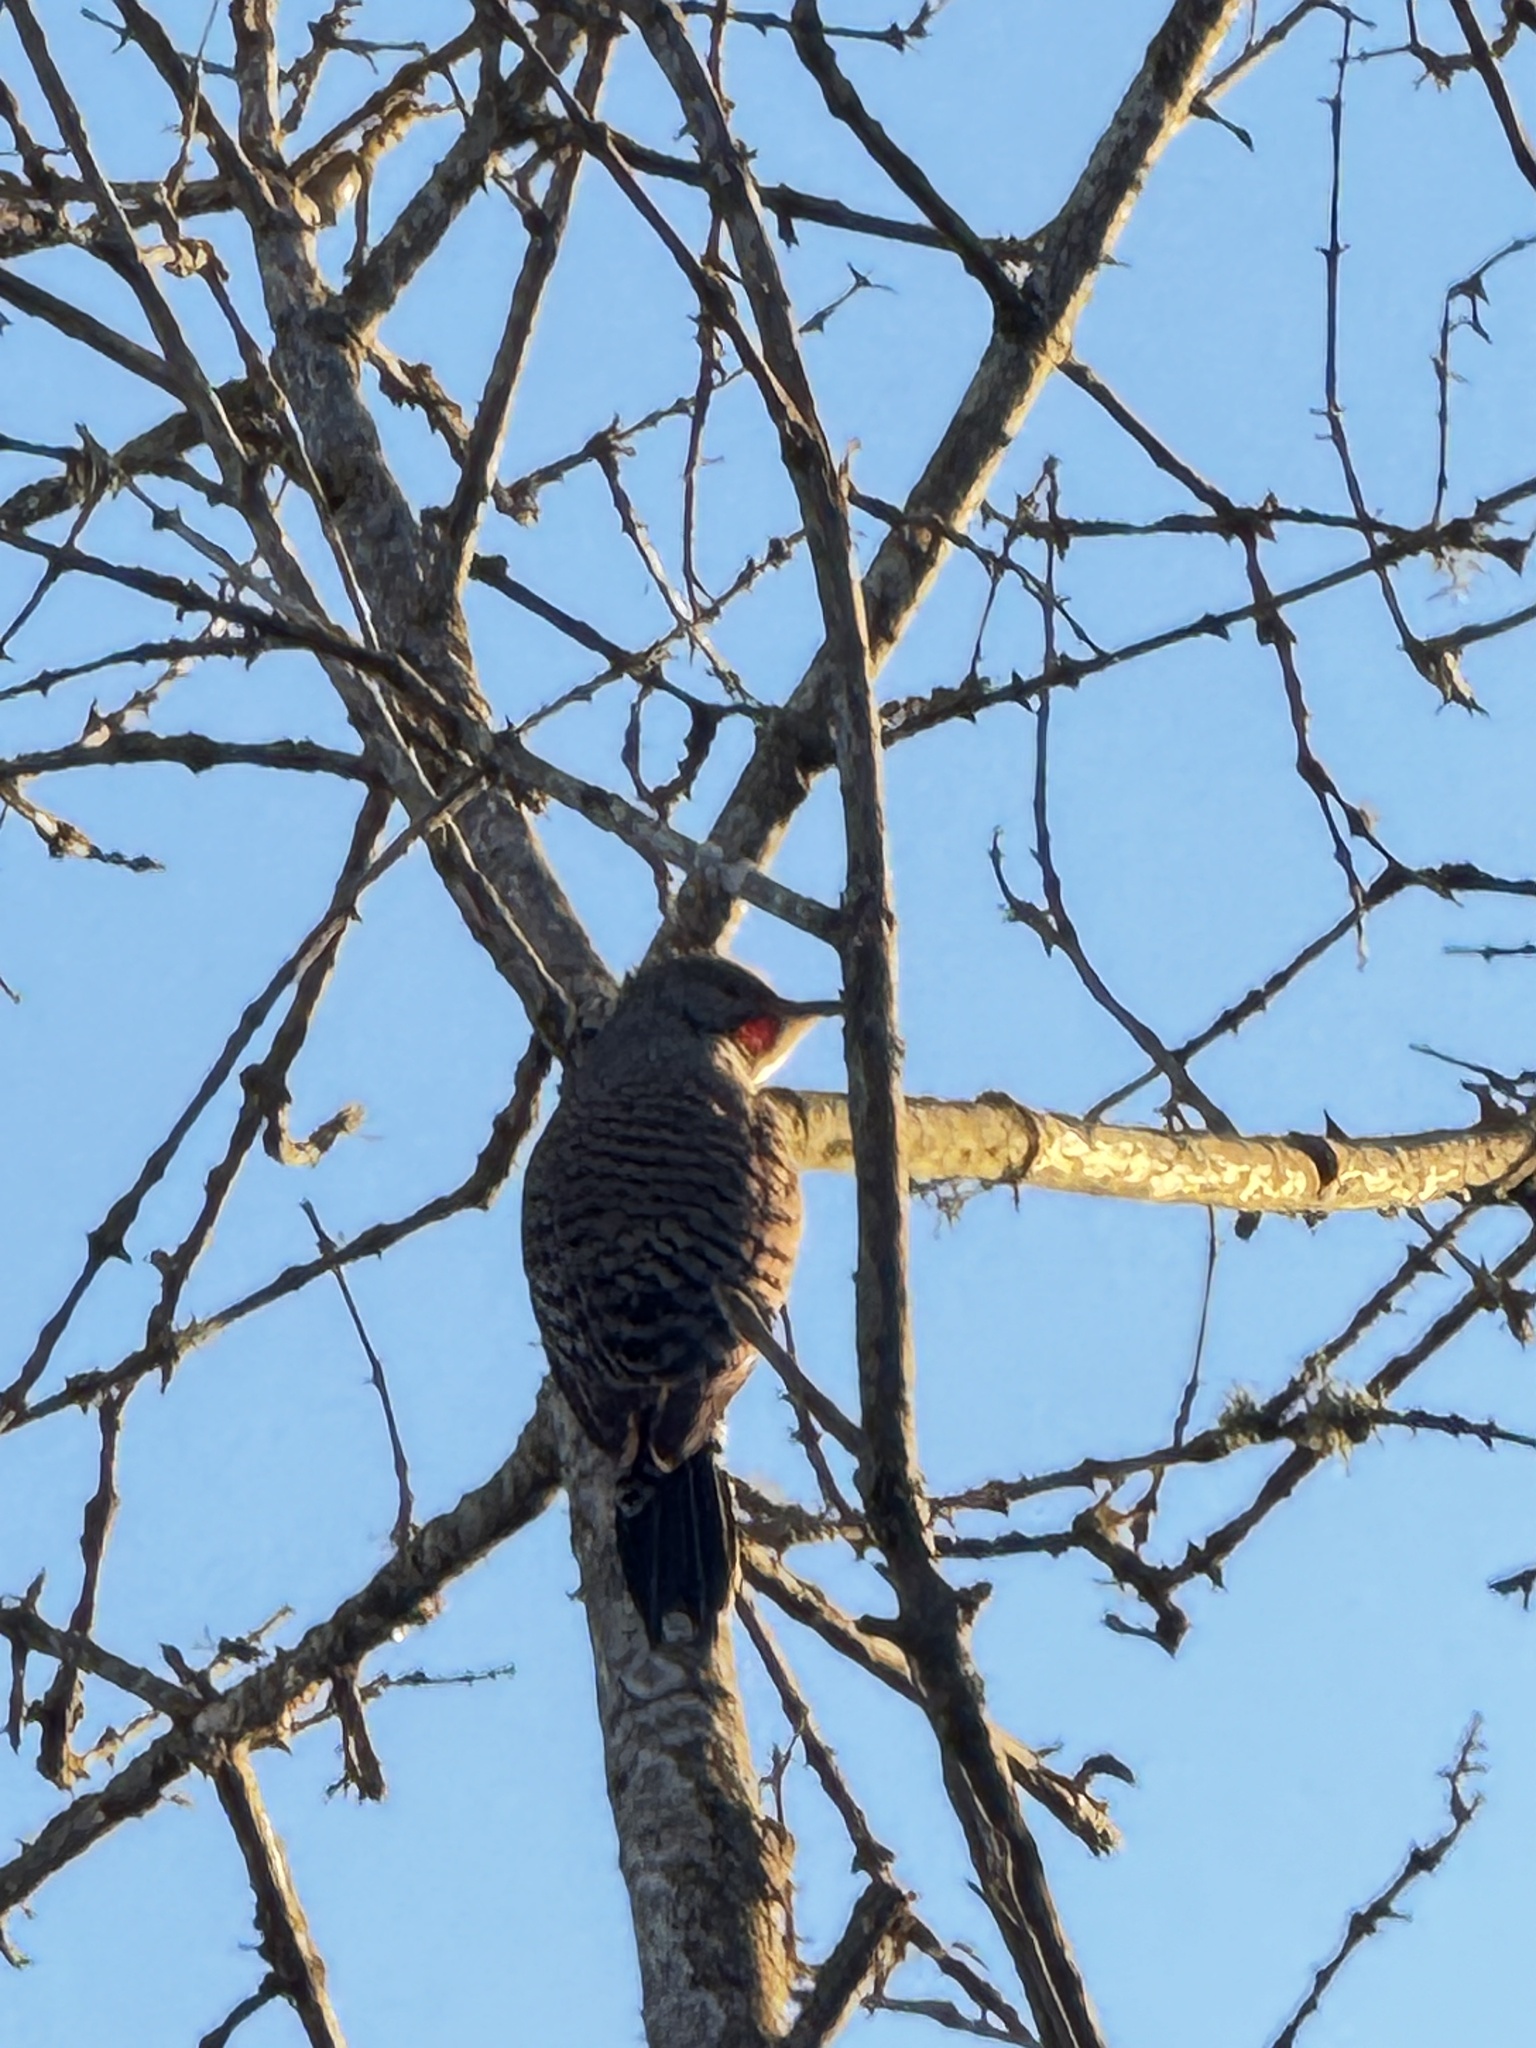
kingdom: Animalia
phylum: Chordata
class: Aves
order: Piciformes
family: Picidae
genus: Colaptes
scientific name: Colaptes auratus
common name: Northern flicker
